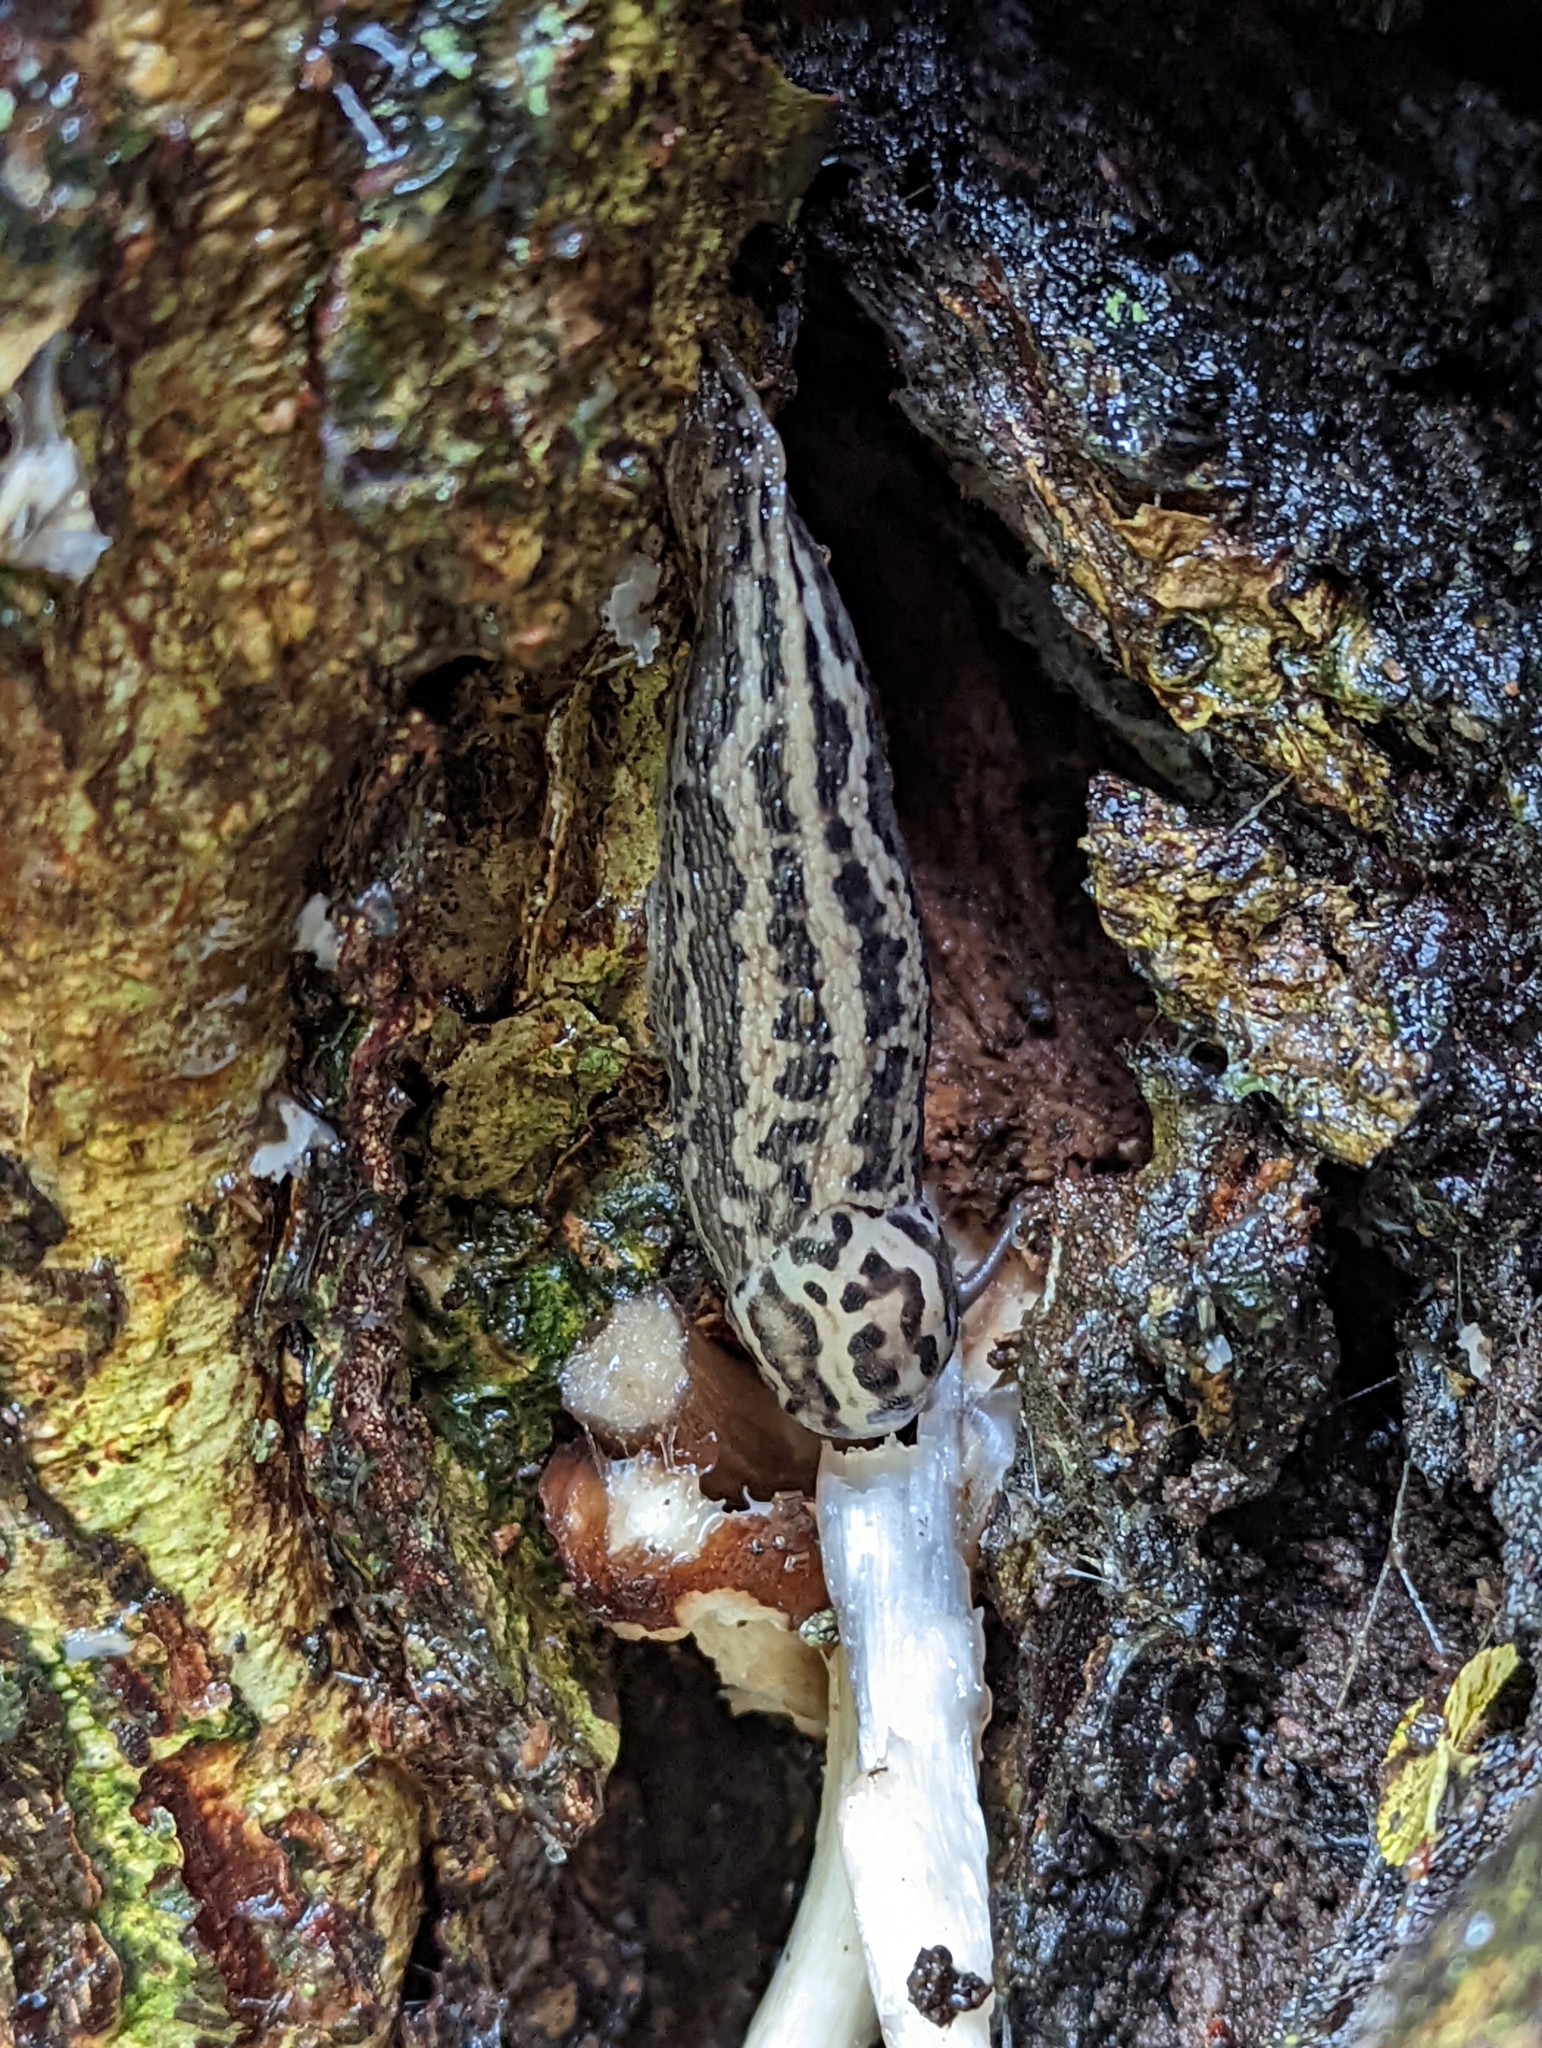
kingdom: Animalia
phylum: Mollusca
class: Gastropoda
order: Stylommatophora
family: Limacidae
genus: Limax
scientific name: Limax maximus
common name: Great grey slug
